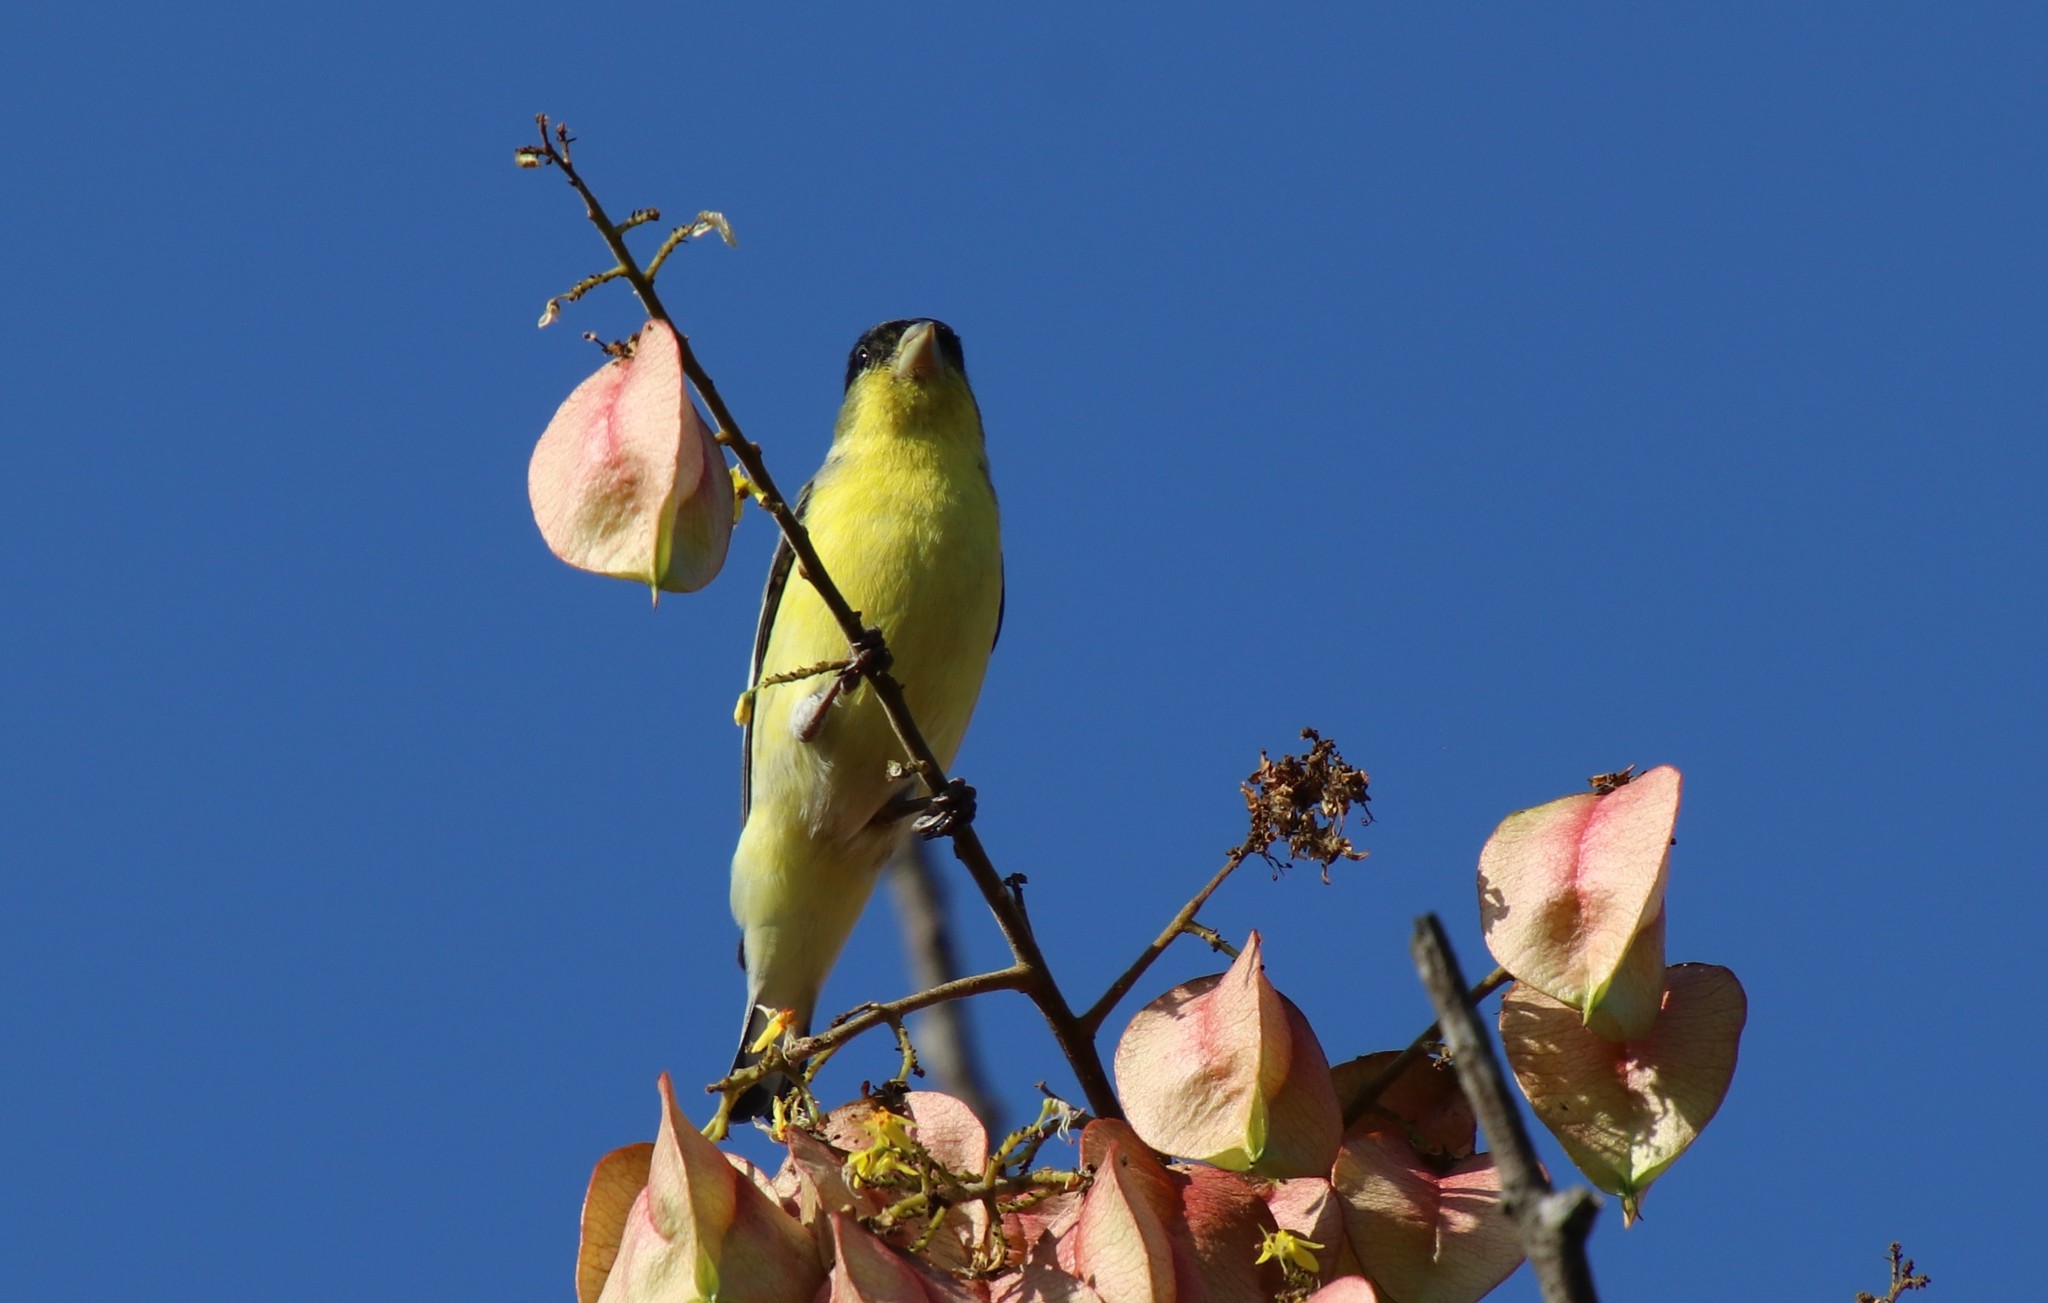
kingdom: Animalia
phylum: Chordata
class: Aves
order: Passeriformes
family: Fringillidae
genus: Spinus
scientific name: Spinus psaltria
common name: Lesser goldfinch
